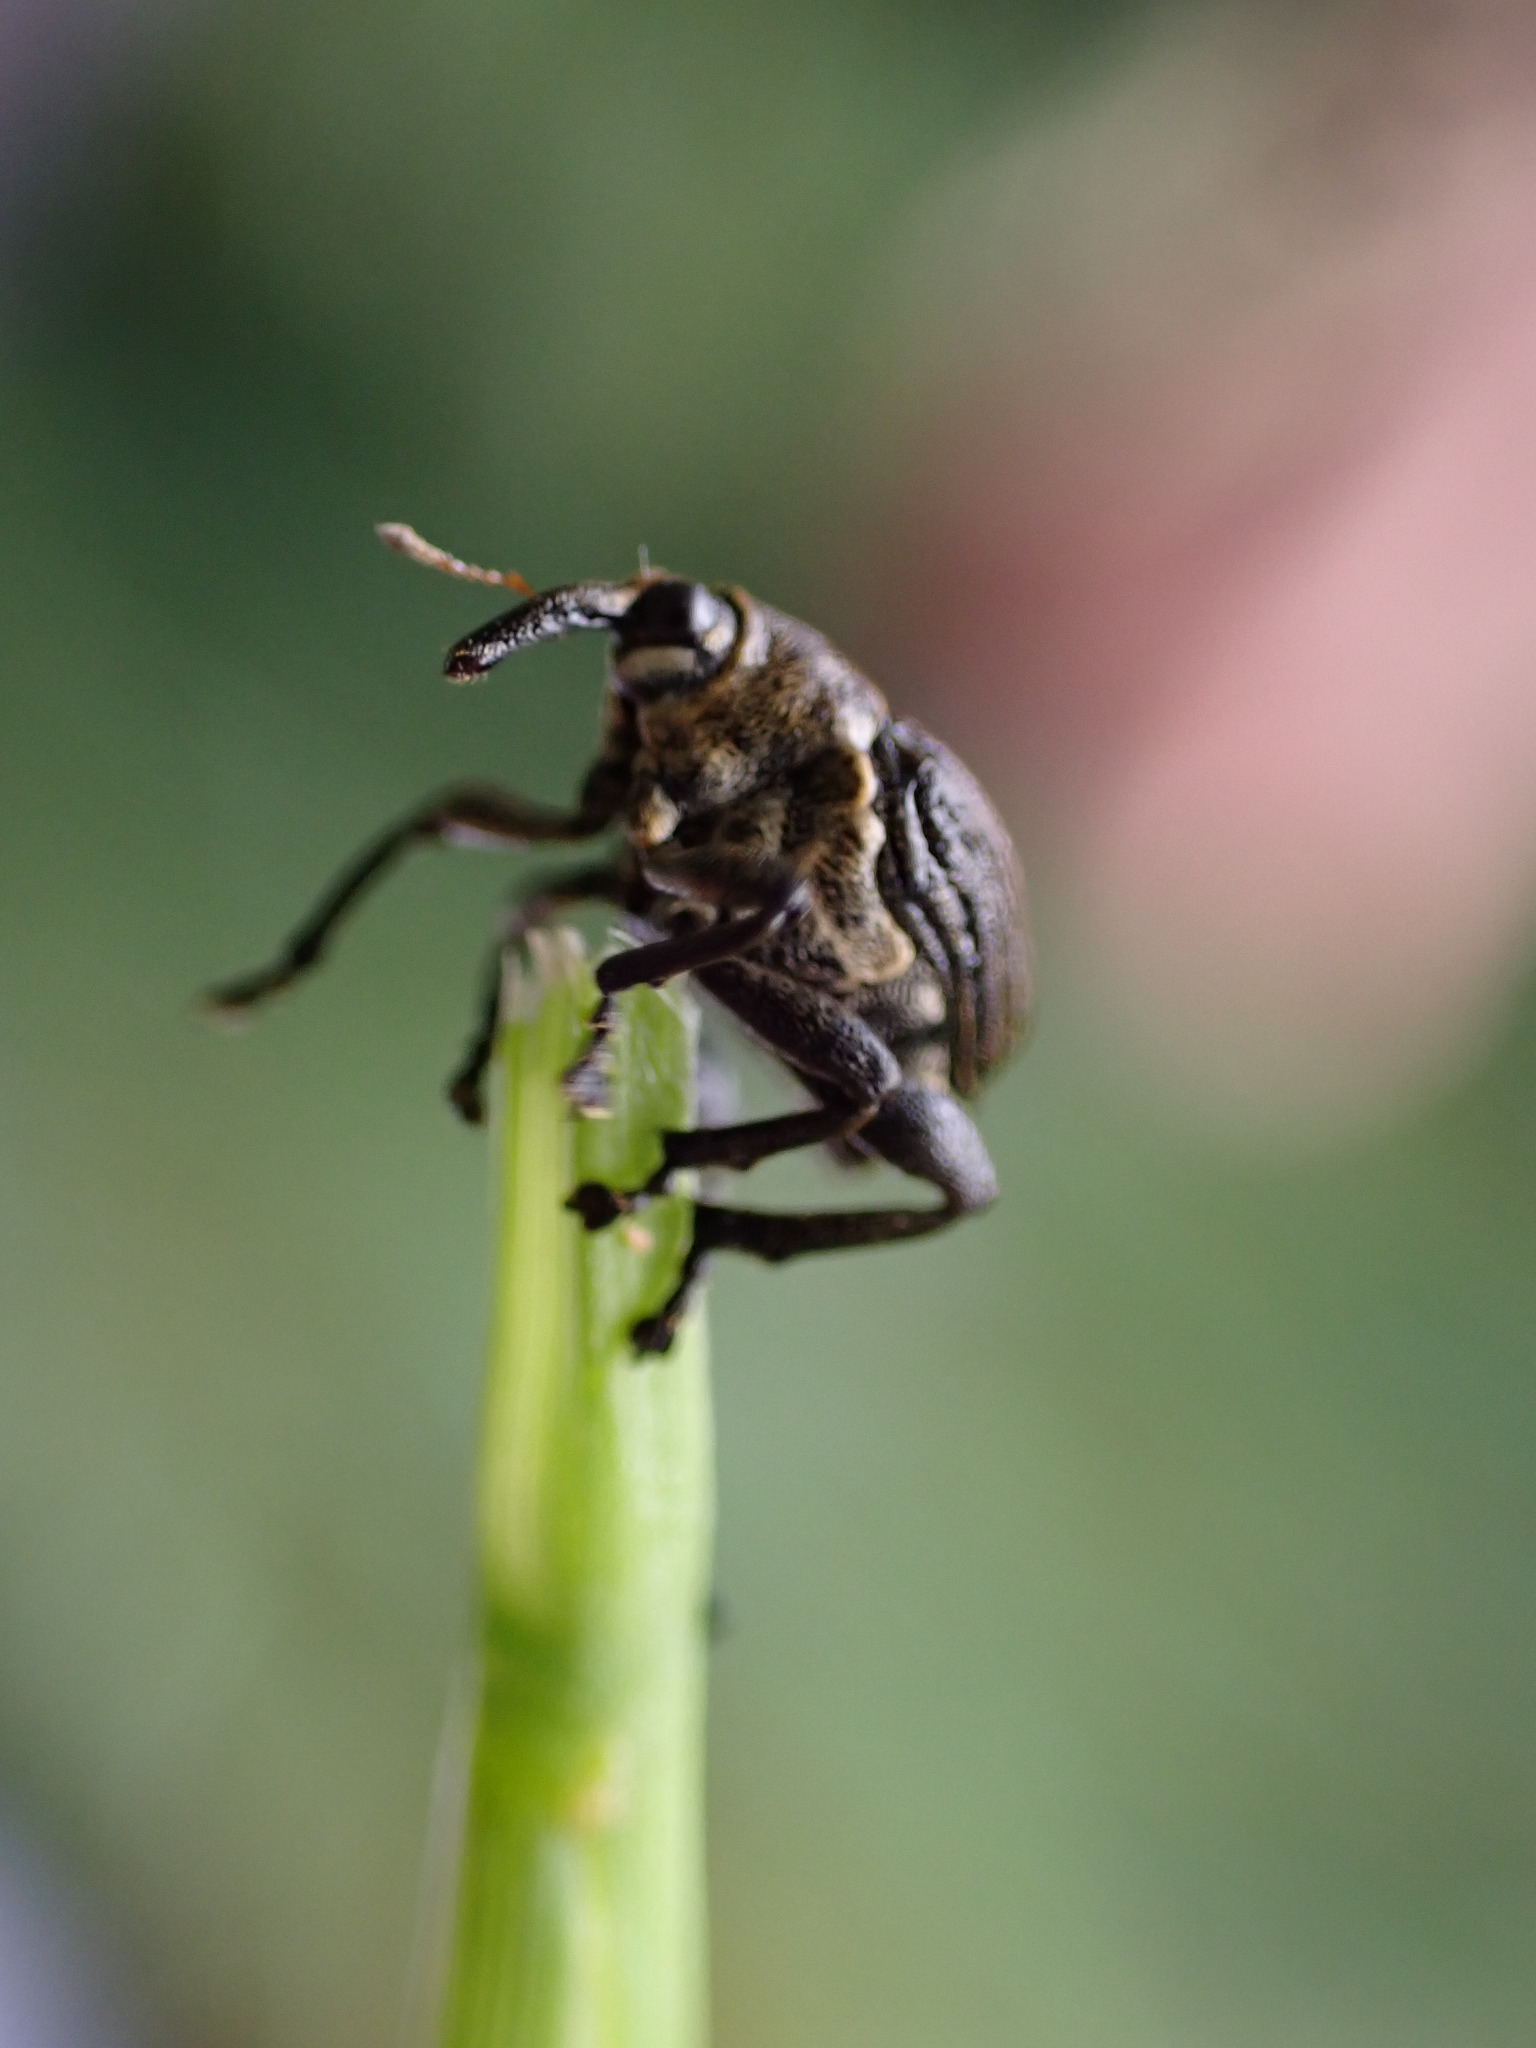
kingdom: Animalia
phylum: Arthropoda
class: Insecta
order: Coleoptera
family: Curculionidae
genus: Mononychus
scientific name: Mononychus punctumalbum
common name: Iris weevil
